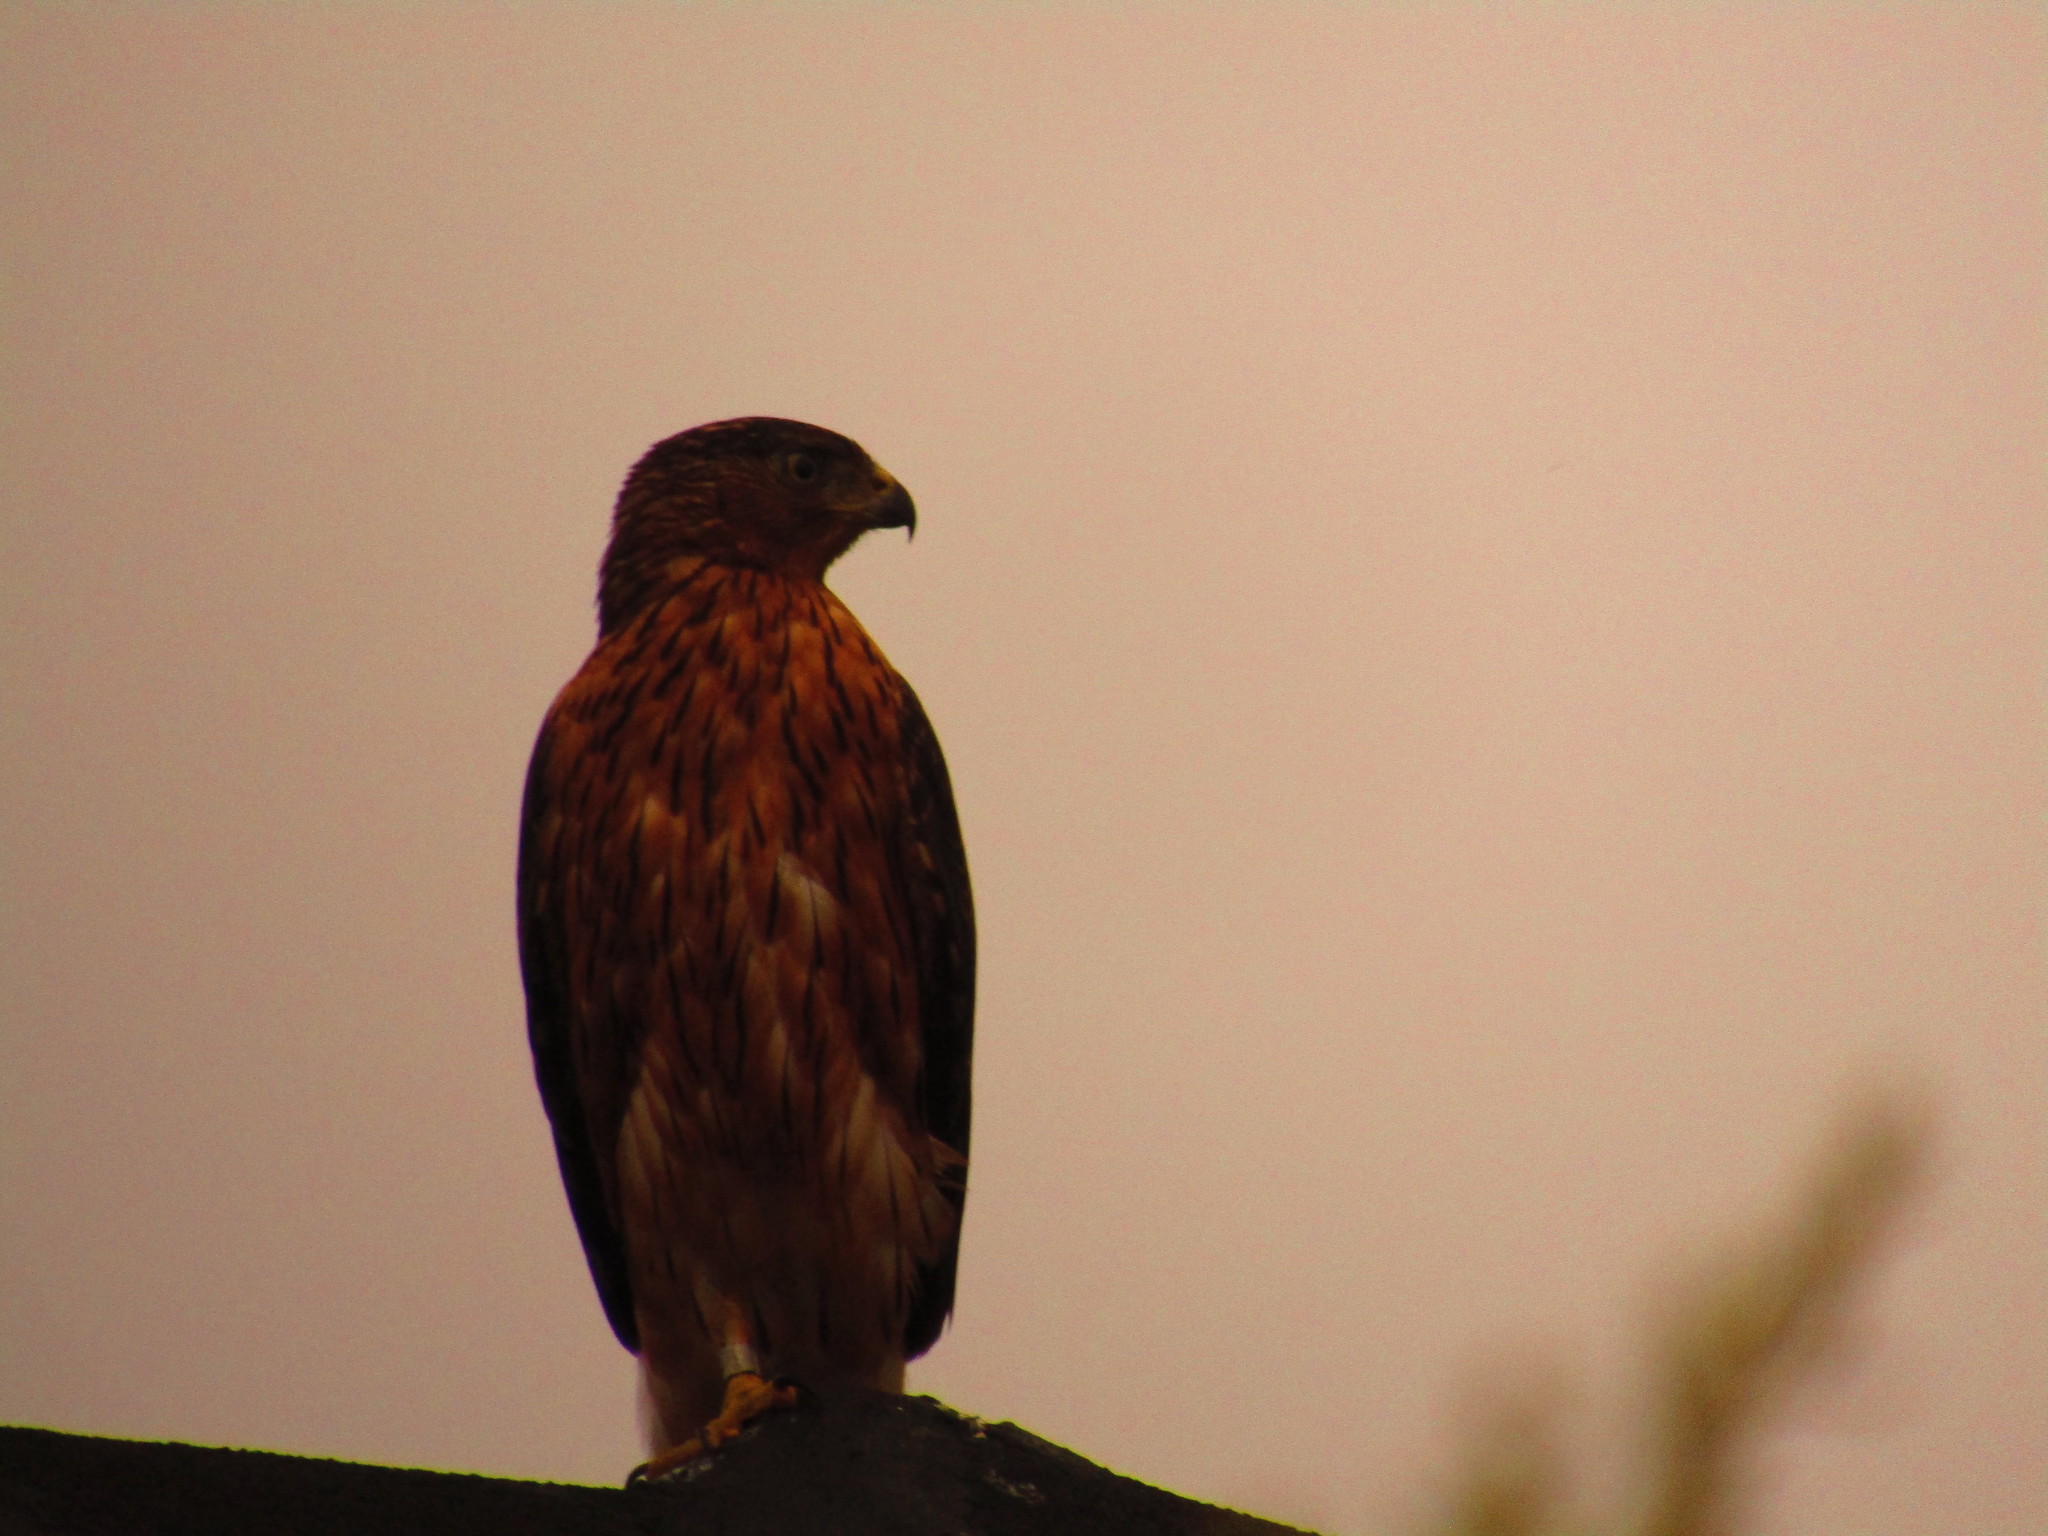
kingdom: Animalia
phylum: Chordata
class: Aves
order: Accipitriformes
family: Accipitridae
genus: Accipiter
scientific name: Accipiter melanoleucus
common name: Black sparrowhawk
